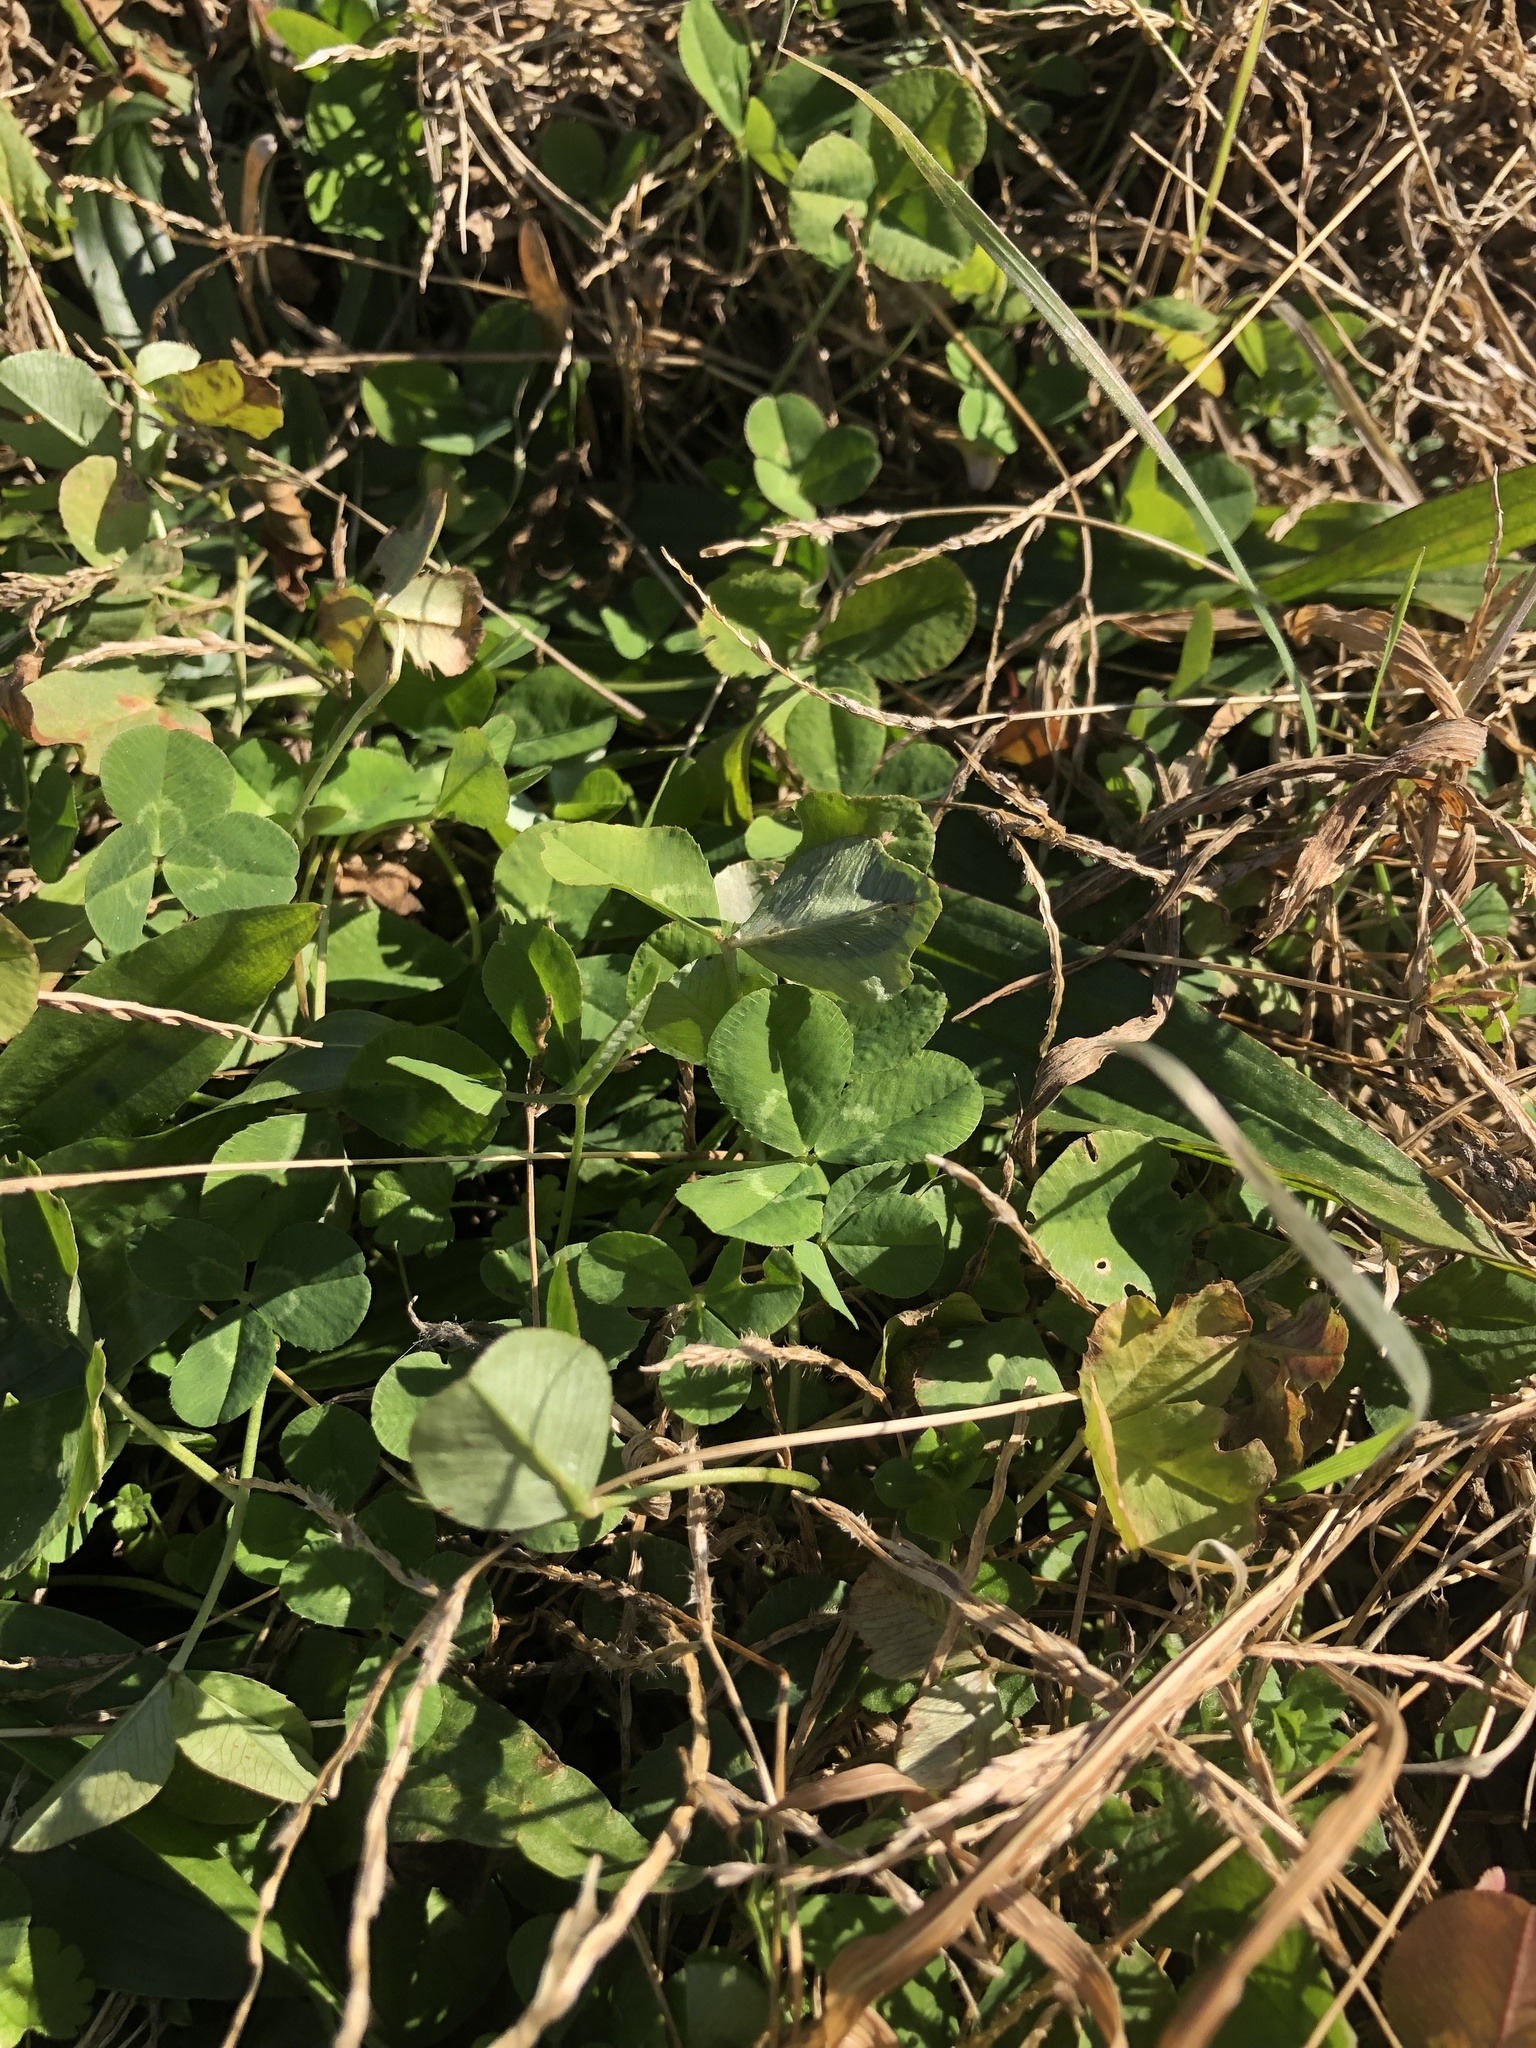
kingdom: Plantae
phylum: Tracheophyta
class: Magnoliopsida
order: Fabales
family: Fabaceae
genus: Trifolium
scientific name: Trifolium repens
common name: White clover
